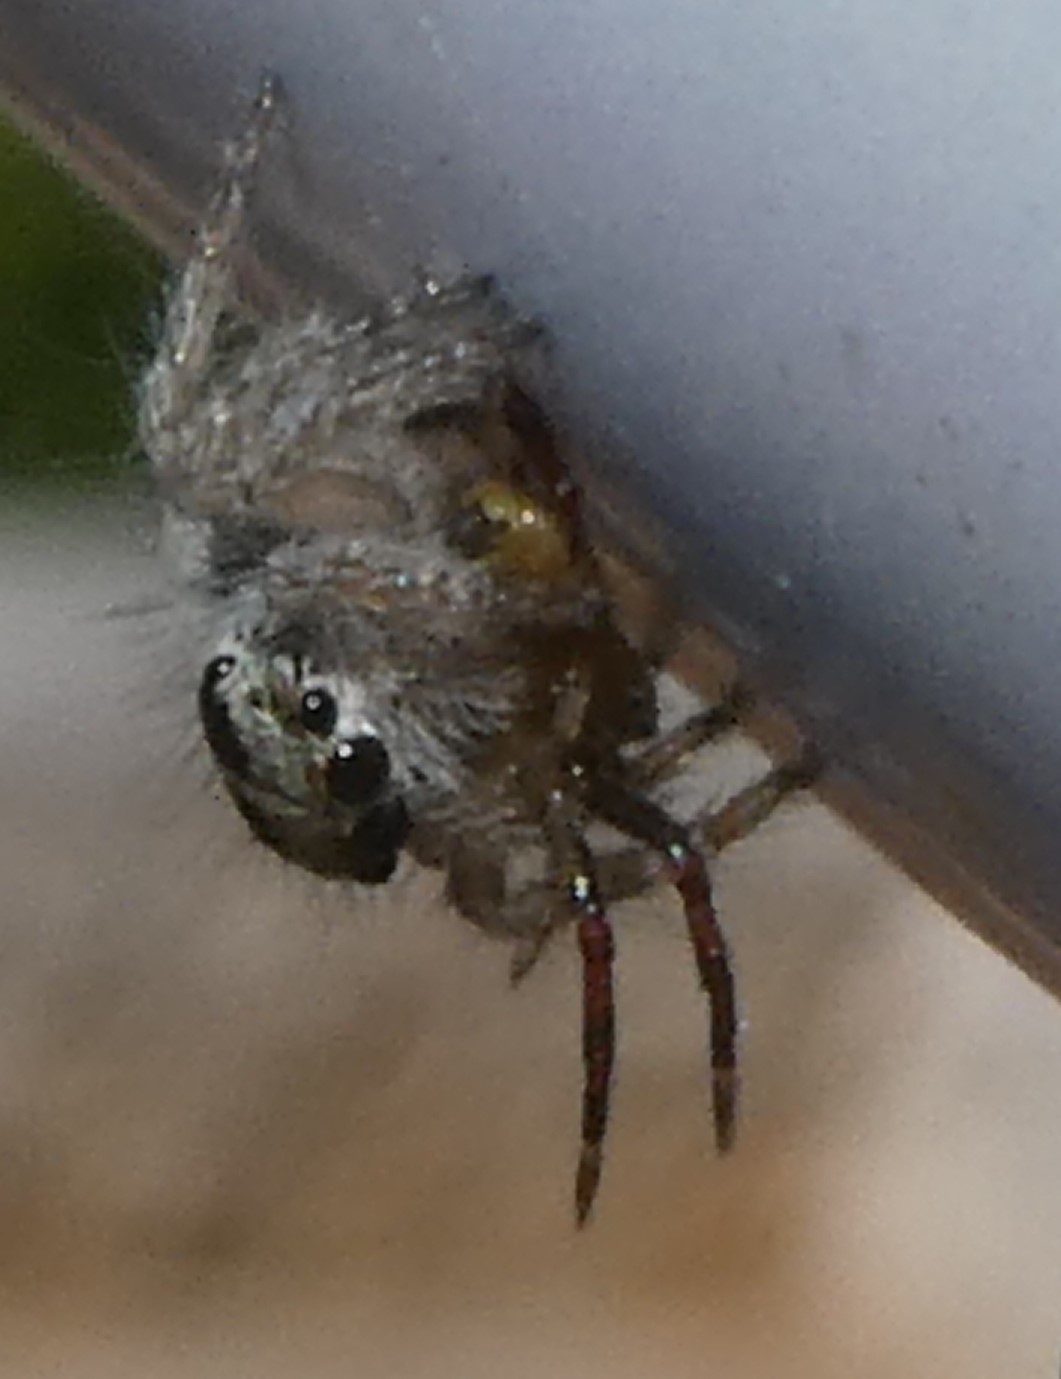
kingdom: Animalia
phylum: Arthropoda
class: Arachnida
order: Araneae
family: Salticidae
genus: Philaeus
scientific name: Philaeus chrysops
